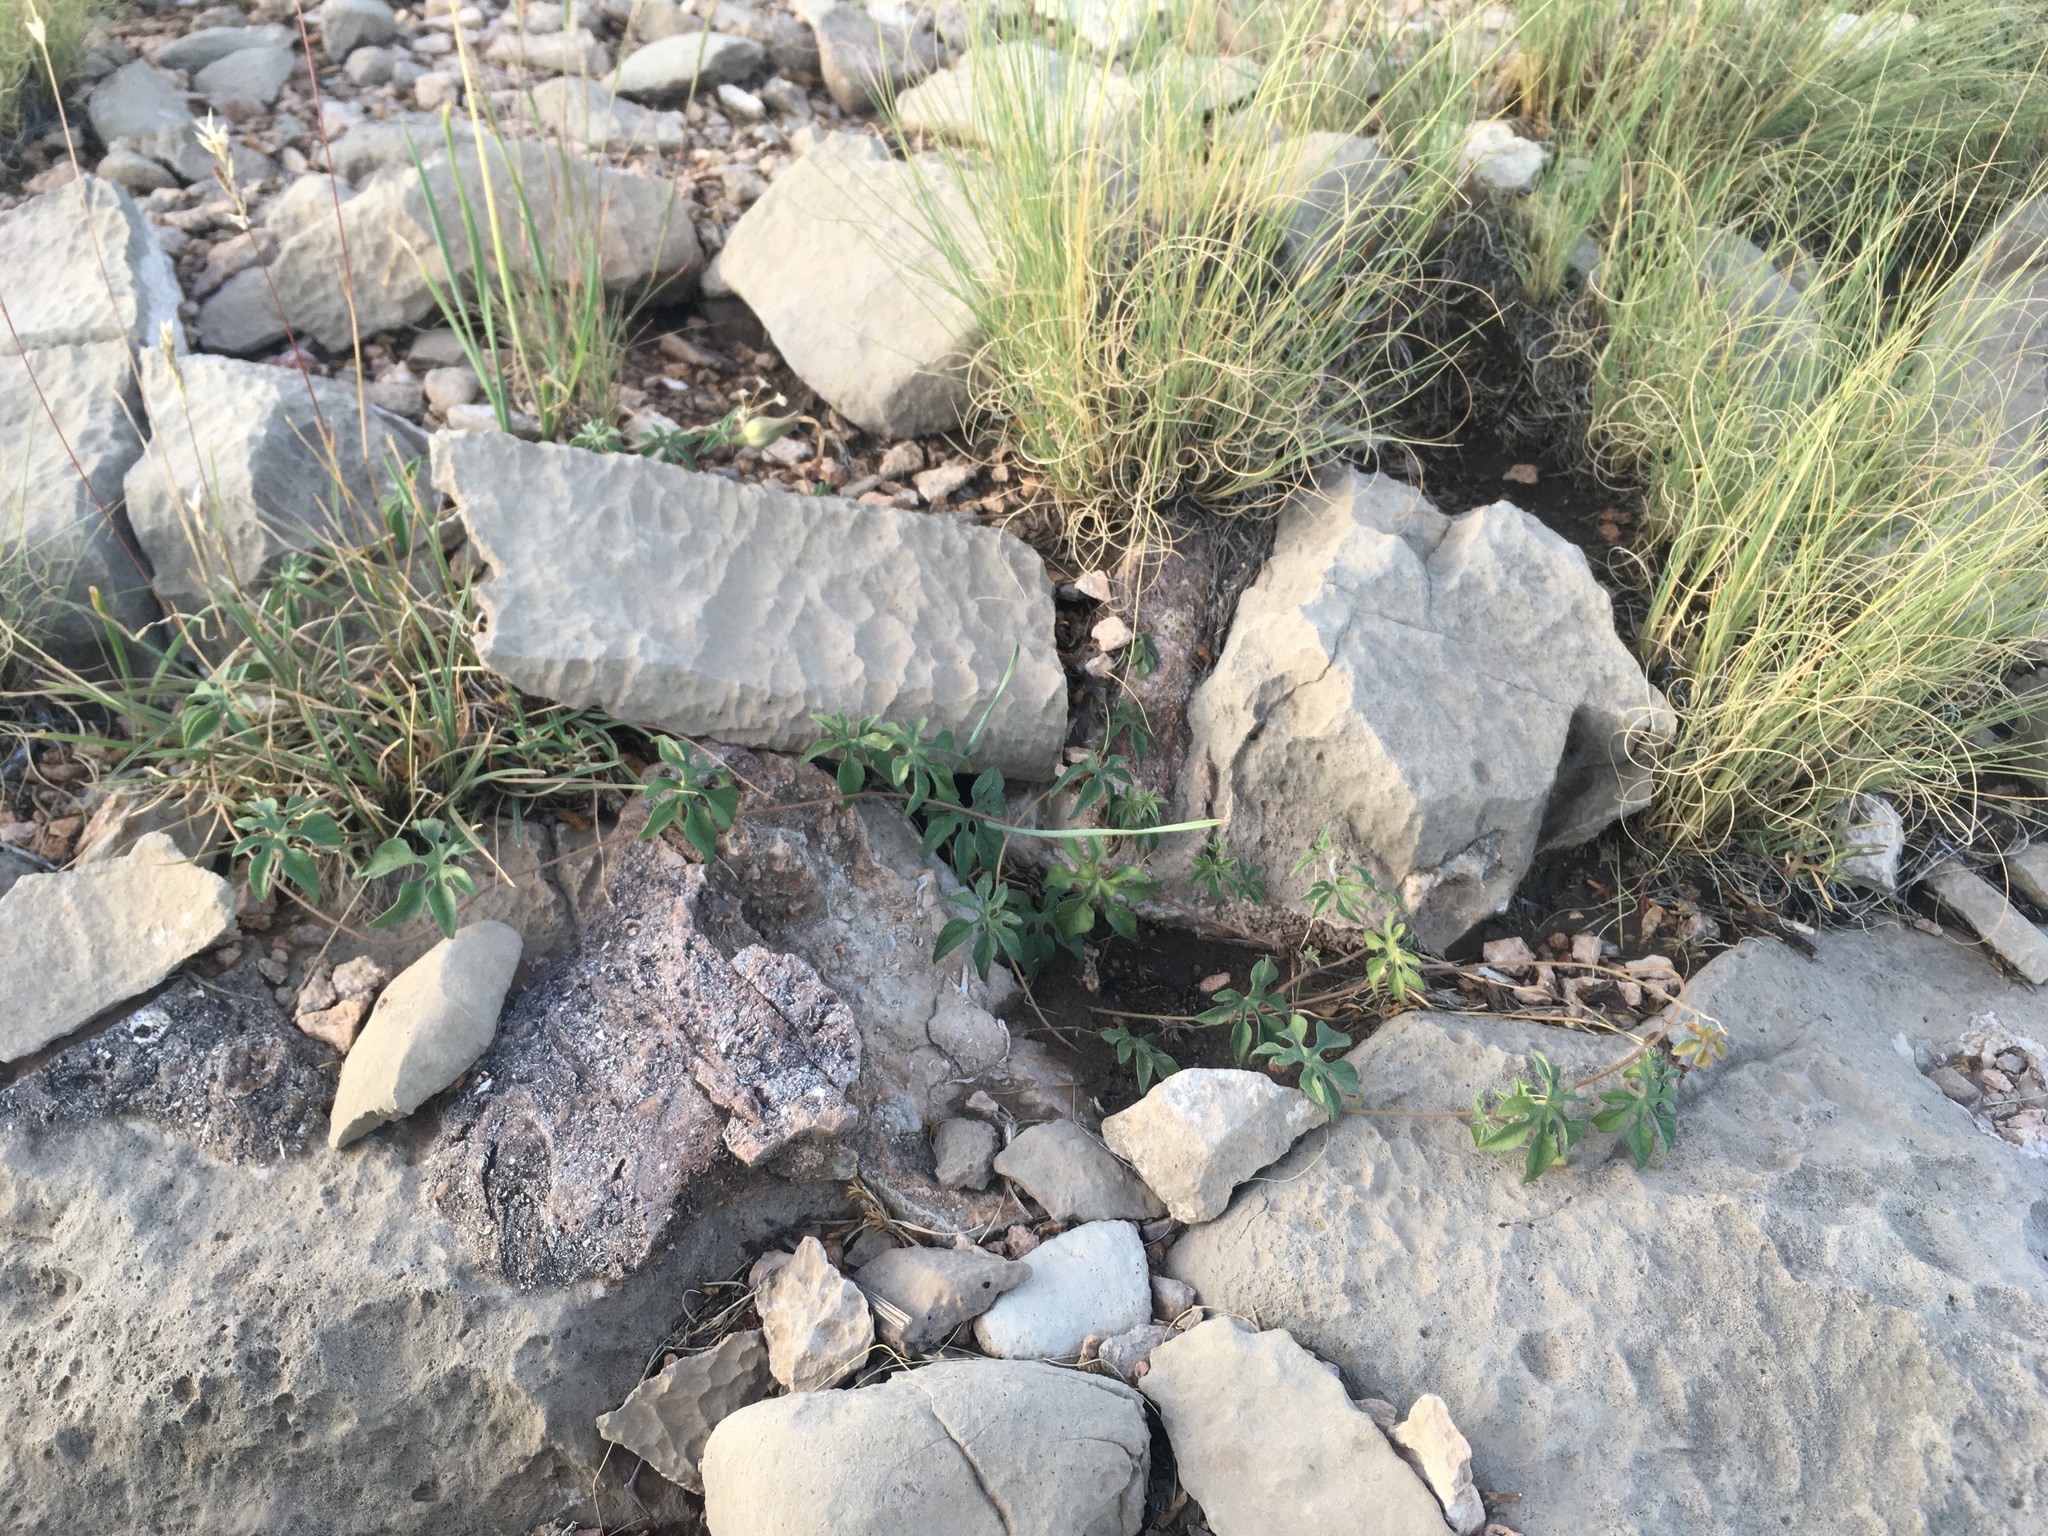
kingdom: Plantae
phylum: Tracheophyta
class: Magnoliopsida
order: Solanales
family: Convolvulaceae
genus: Ipomoea
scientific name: Ipomoea pubescens
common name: Silky morning-glory
